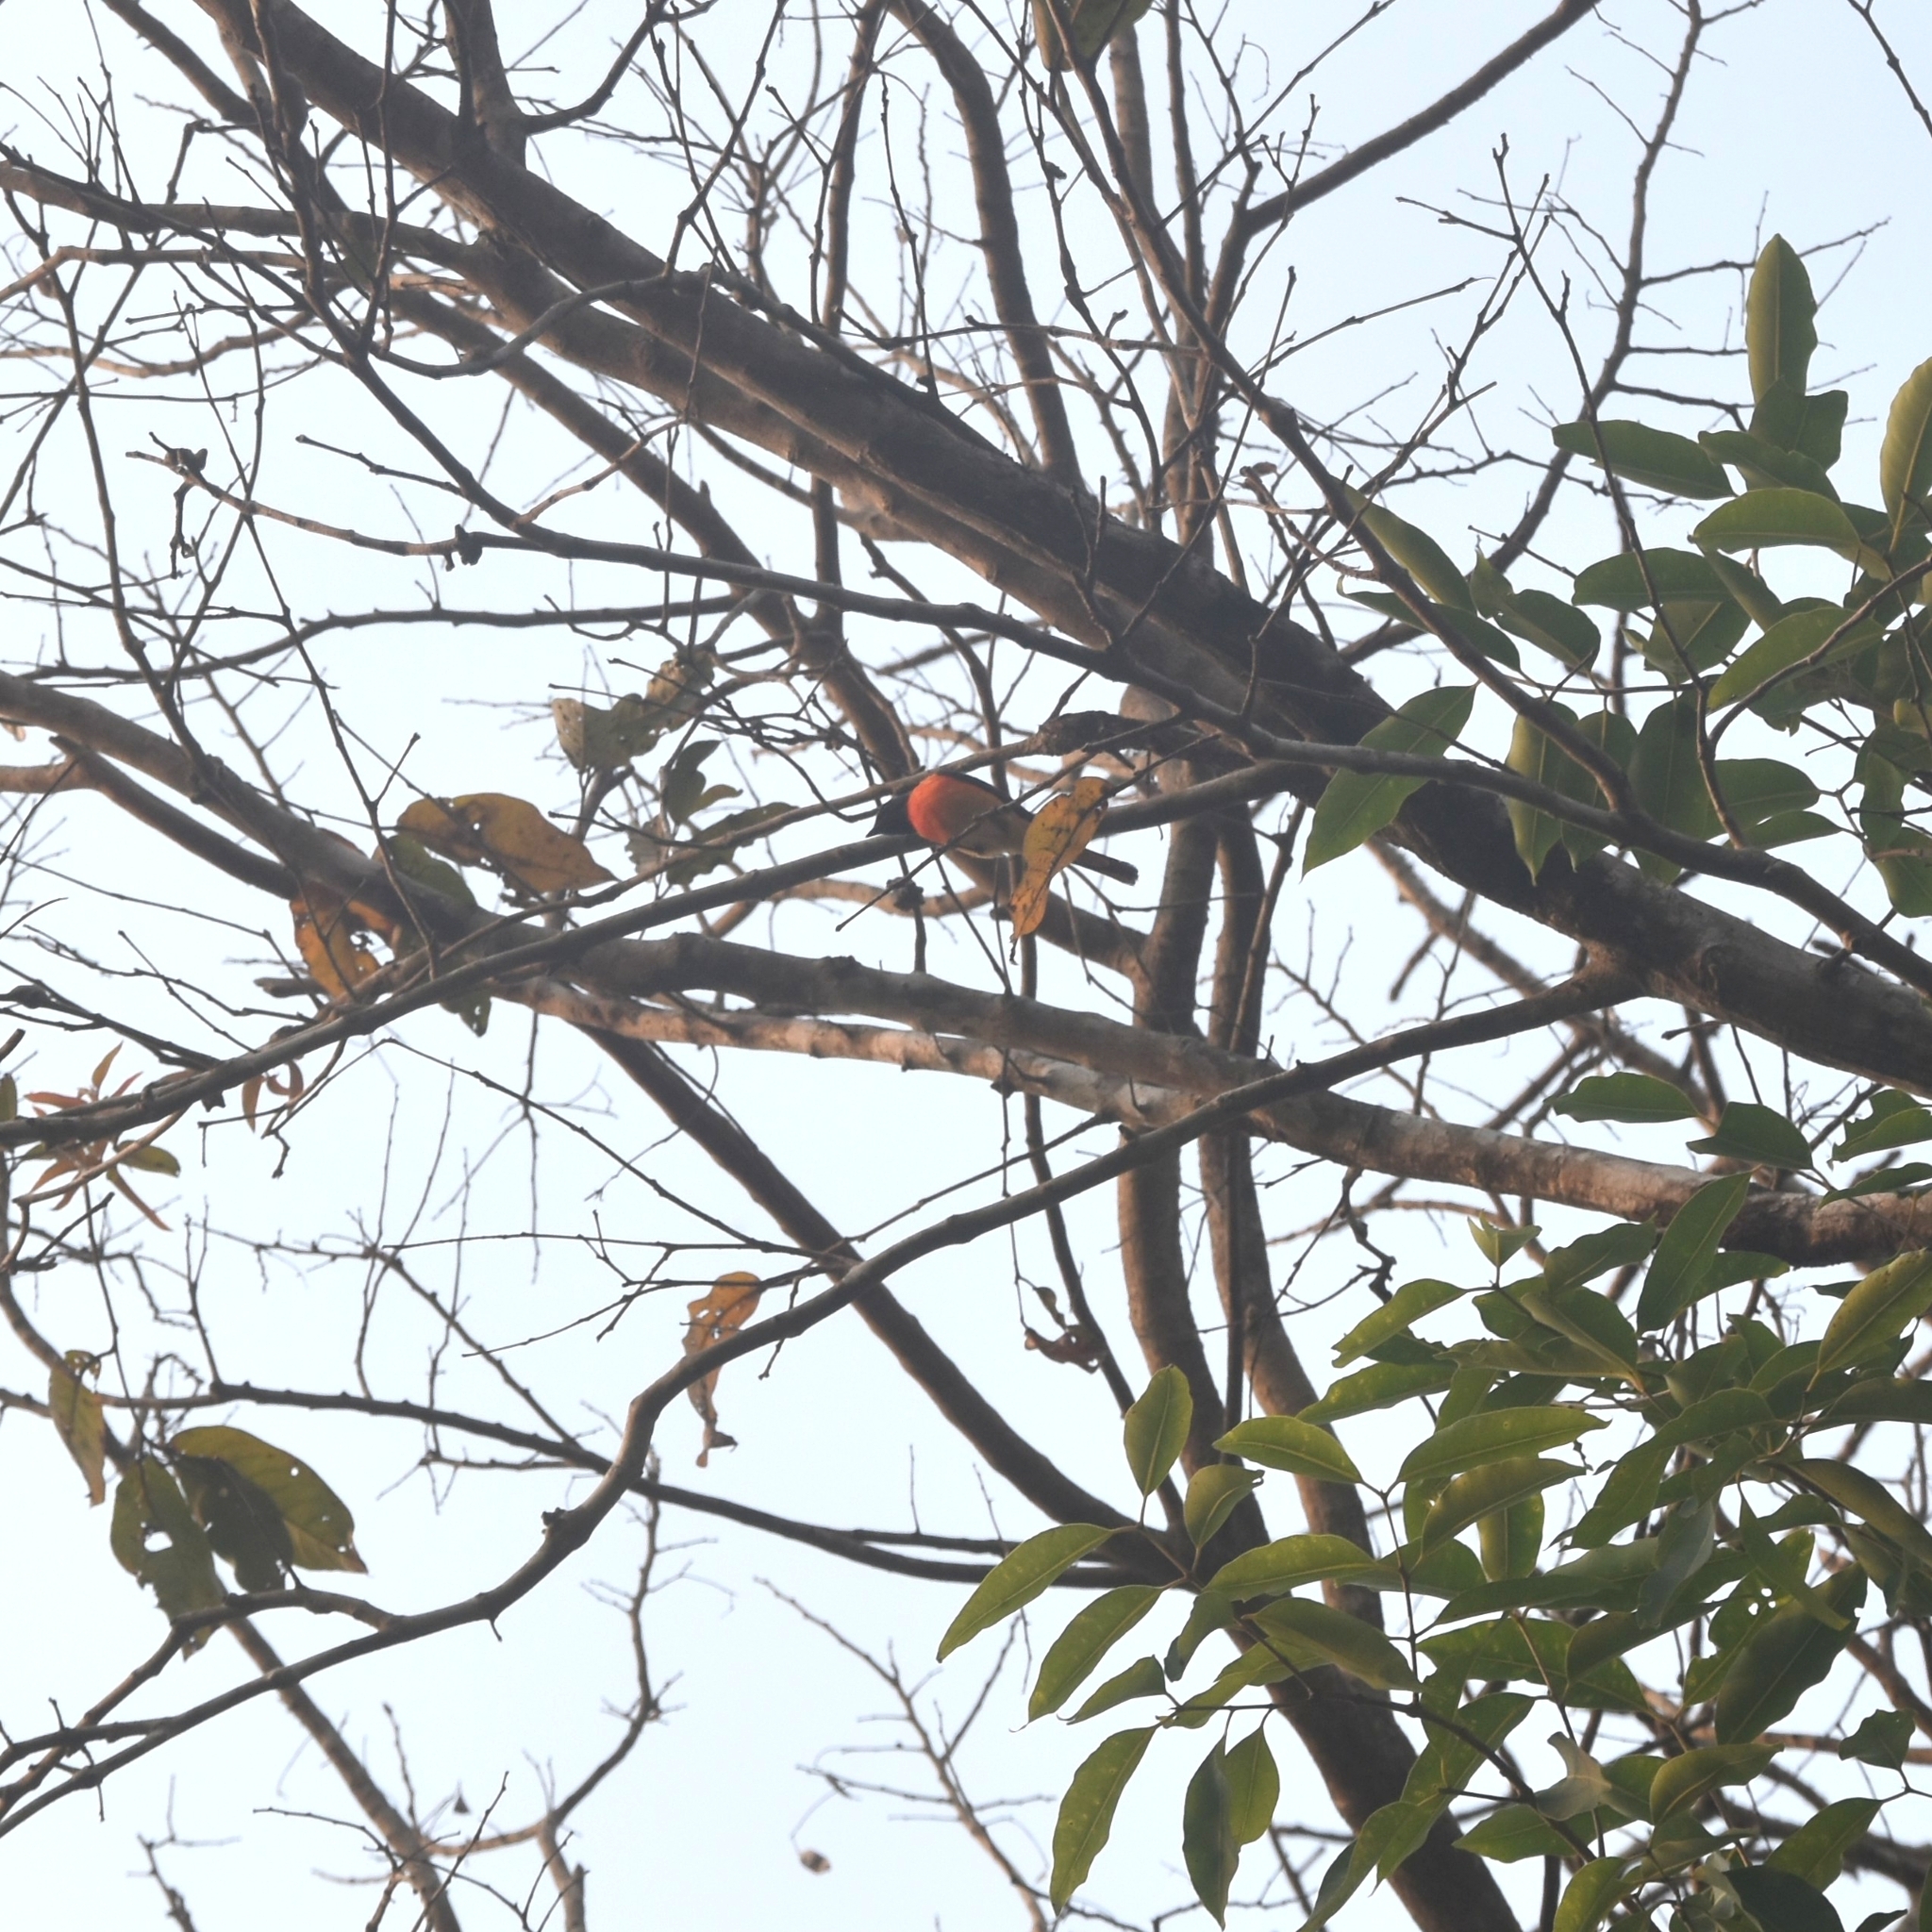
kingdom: Animalia
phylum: Chordata
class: Aves
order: Passeriformes
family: Campephagidae
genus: Pericrocotus
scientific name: Pericrocotus cinnamomeus
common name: Small minivet
